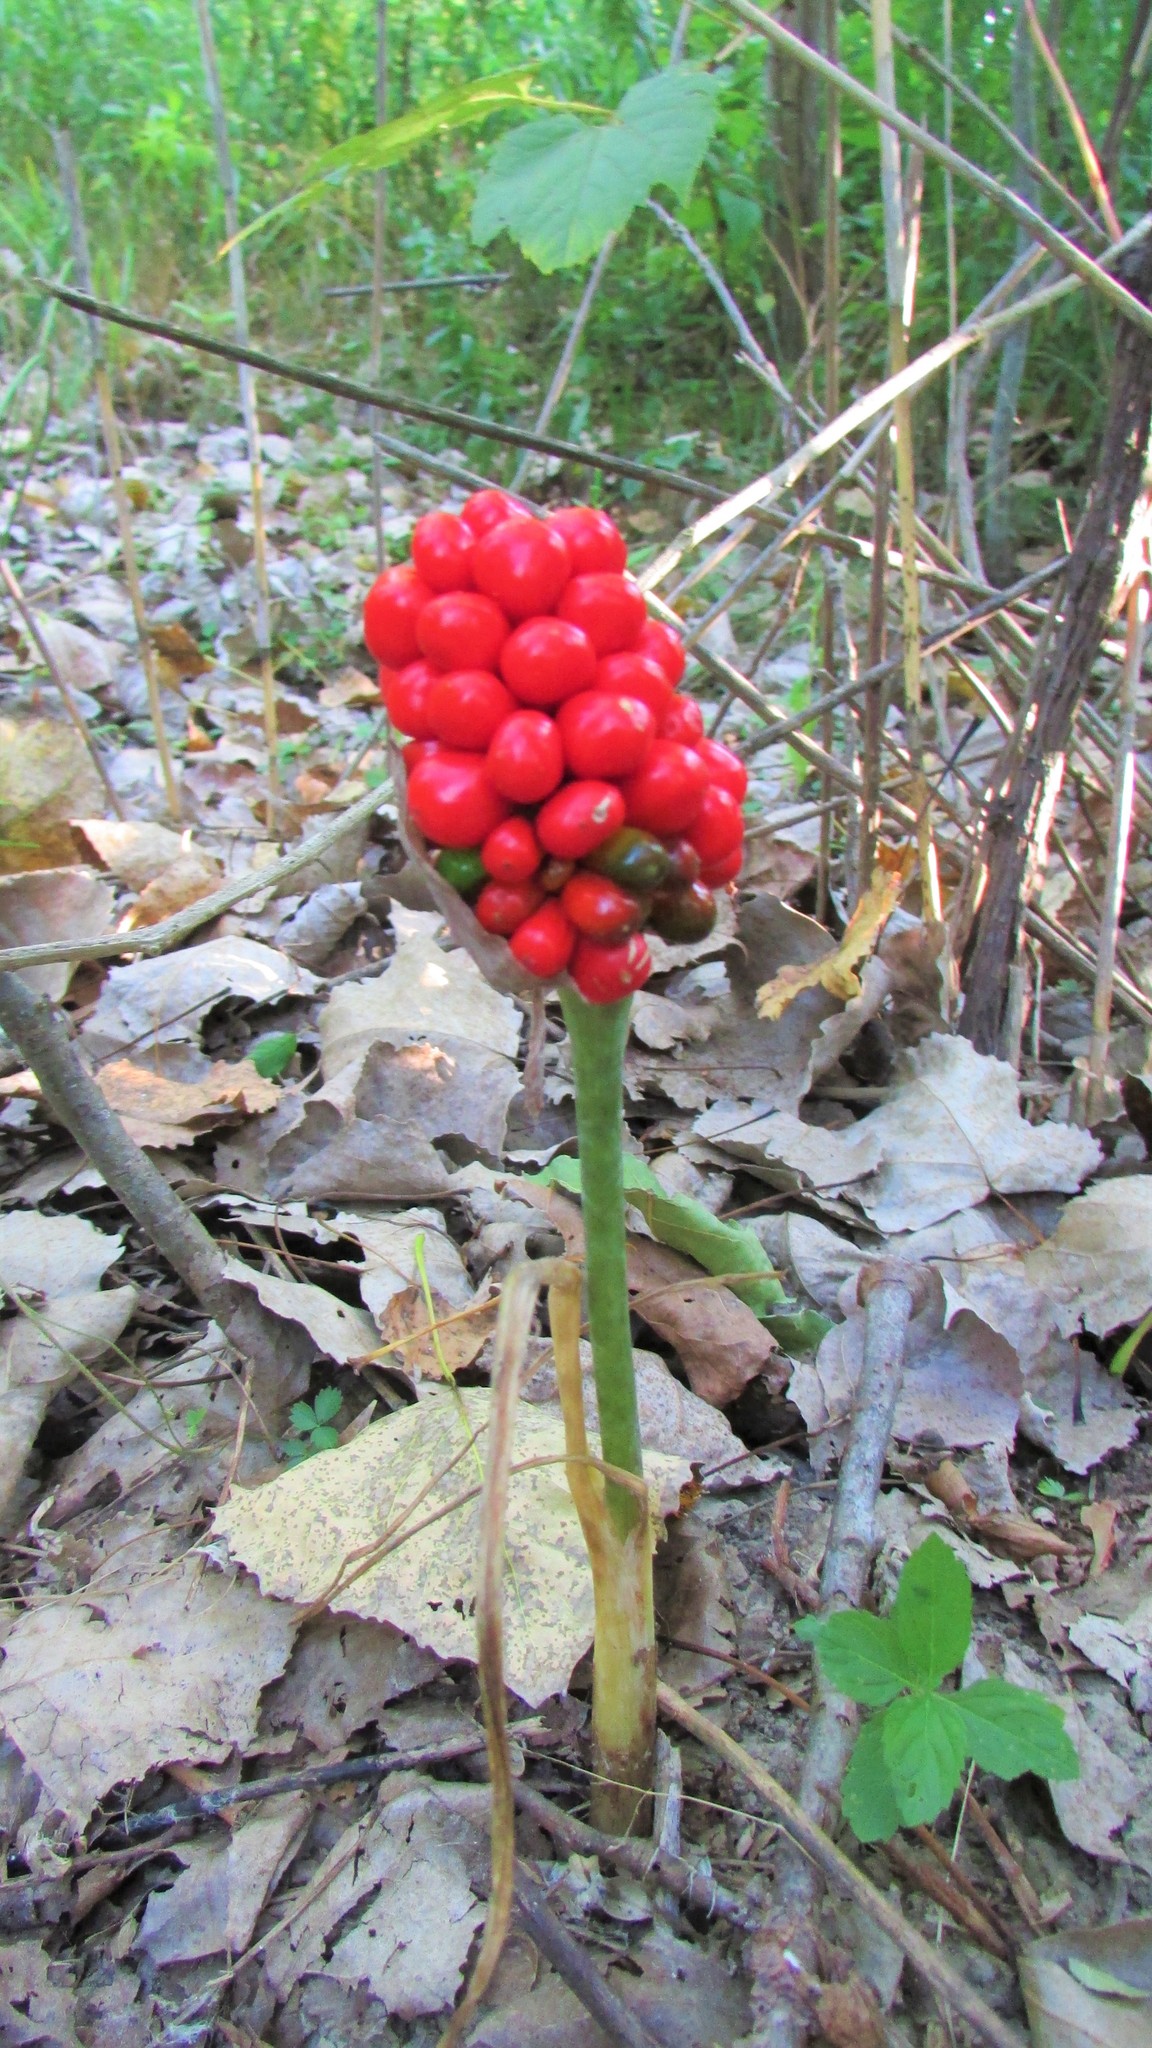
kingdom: Plantae
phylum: Tracheophyta
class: Liliopsida
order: Alismatales
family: Araceae
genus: Arisaema
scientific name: Arisaema triphyllum
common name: Jack-in-the-pulpit
